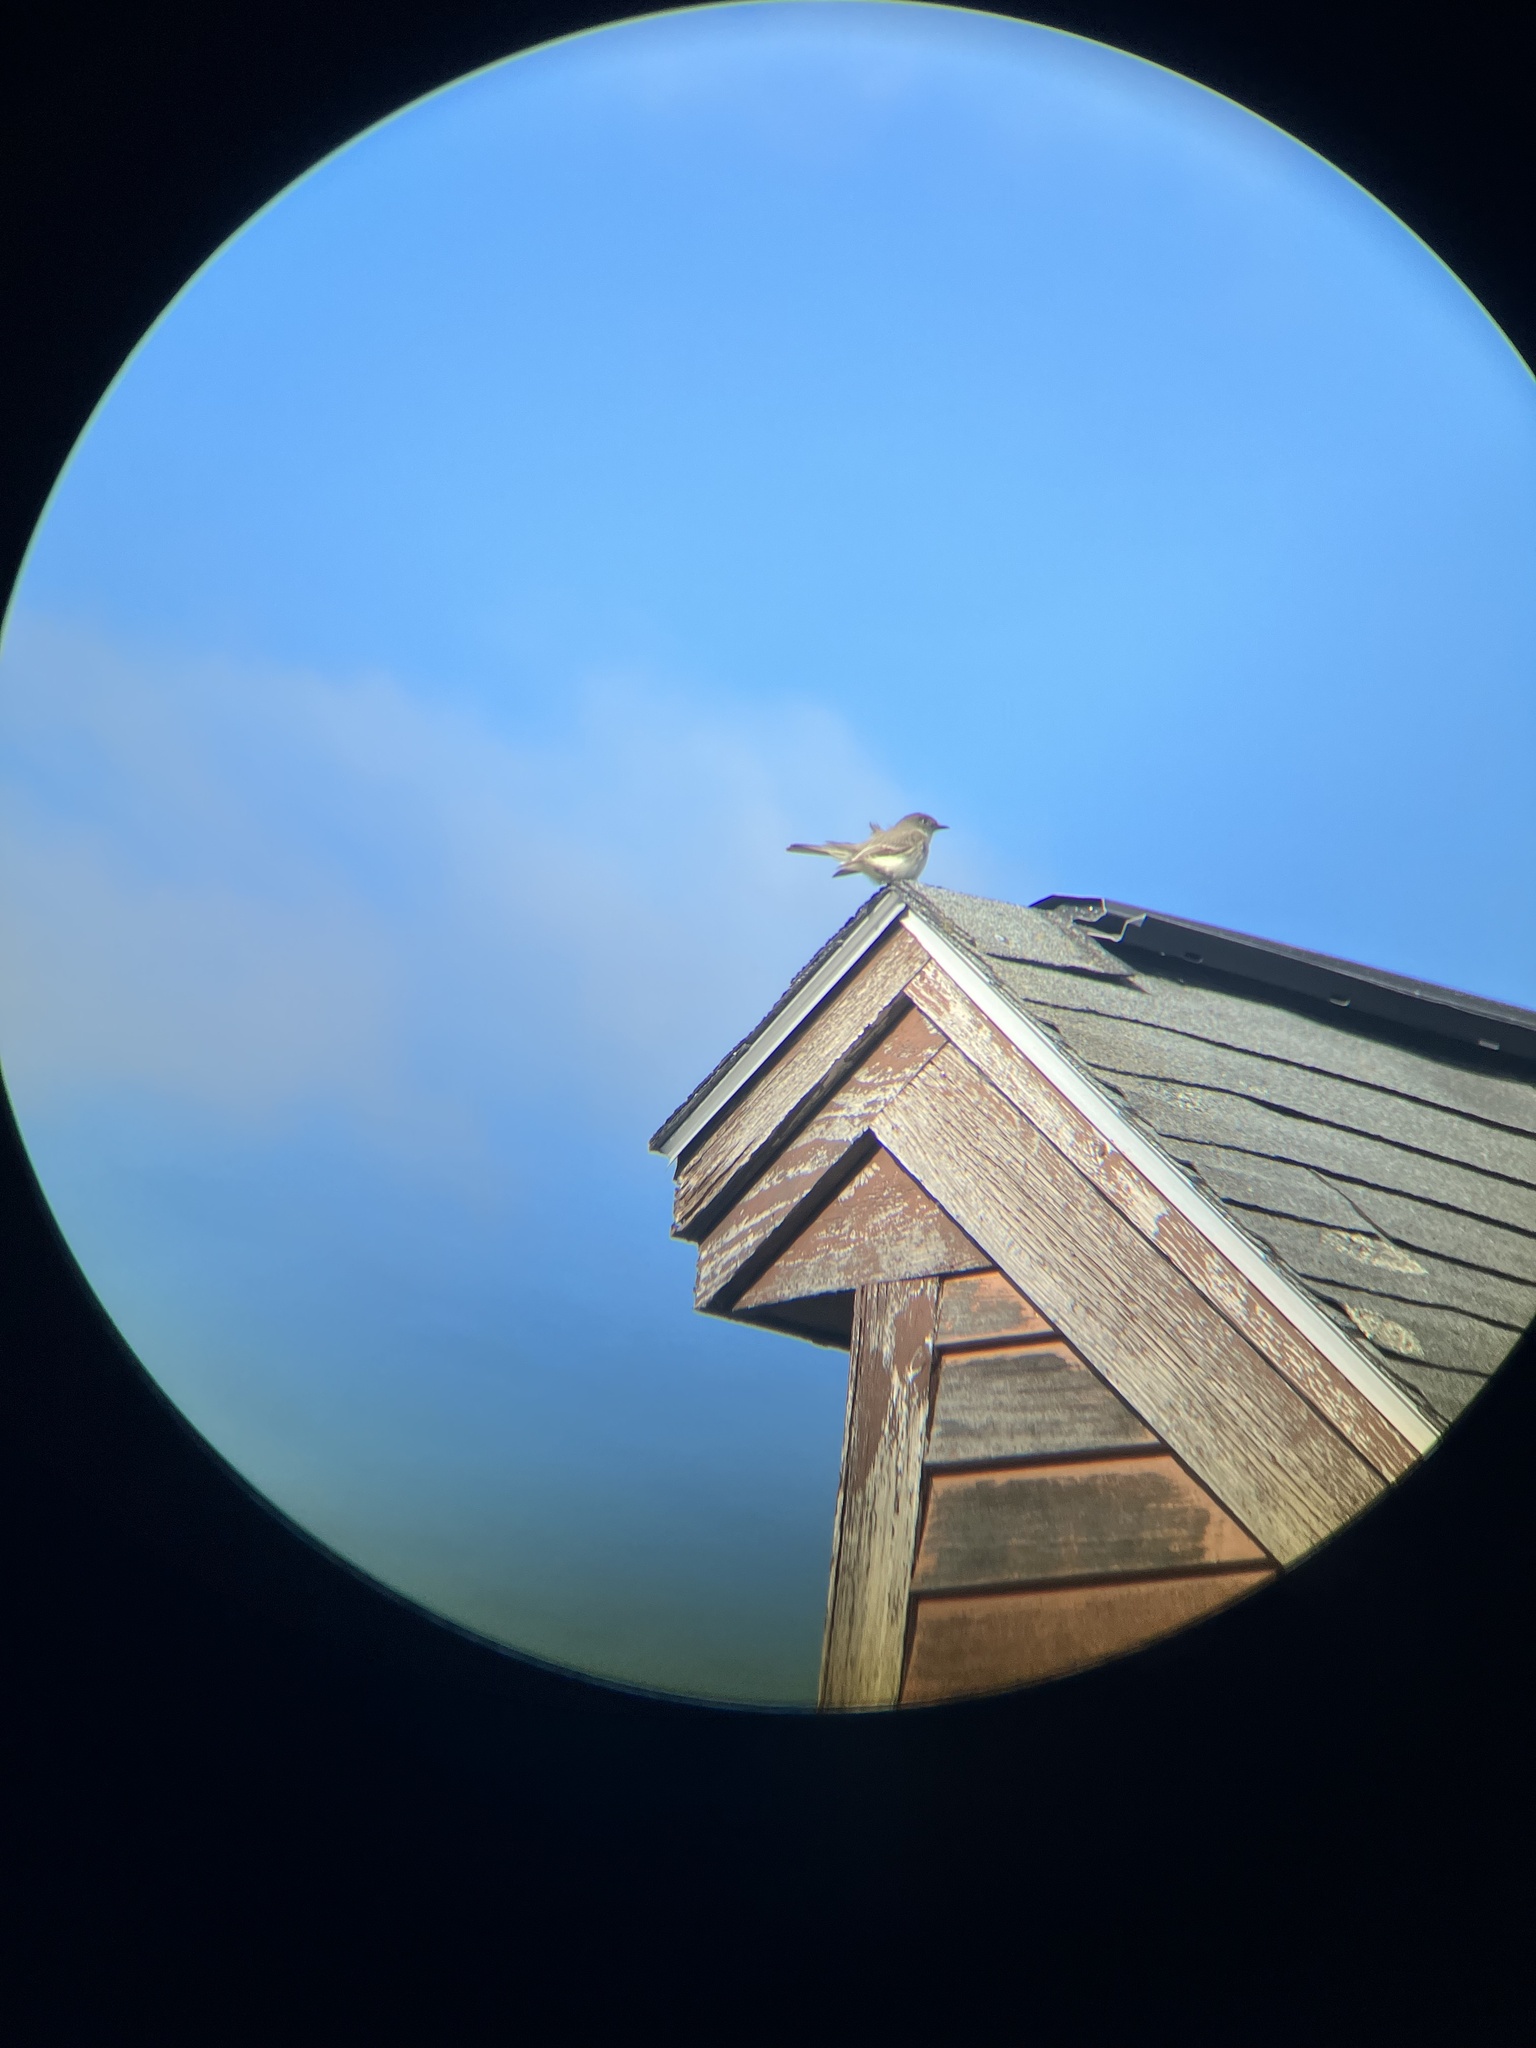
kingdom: Animalia
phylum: Chordata
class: Aves
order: Passeriformes
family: Tyrannidae
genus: Sayornis
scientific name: Sayornis phoebe
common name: Eastern phoebe
